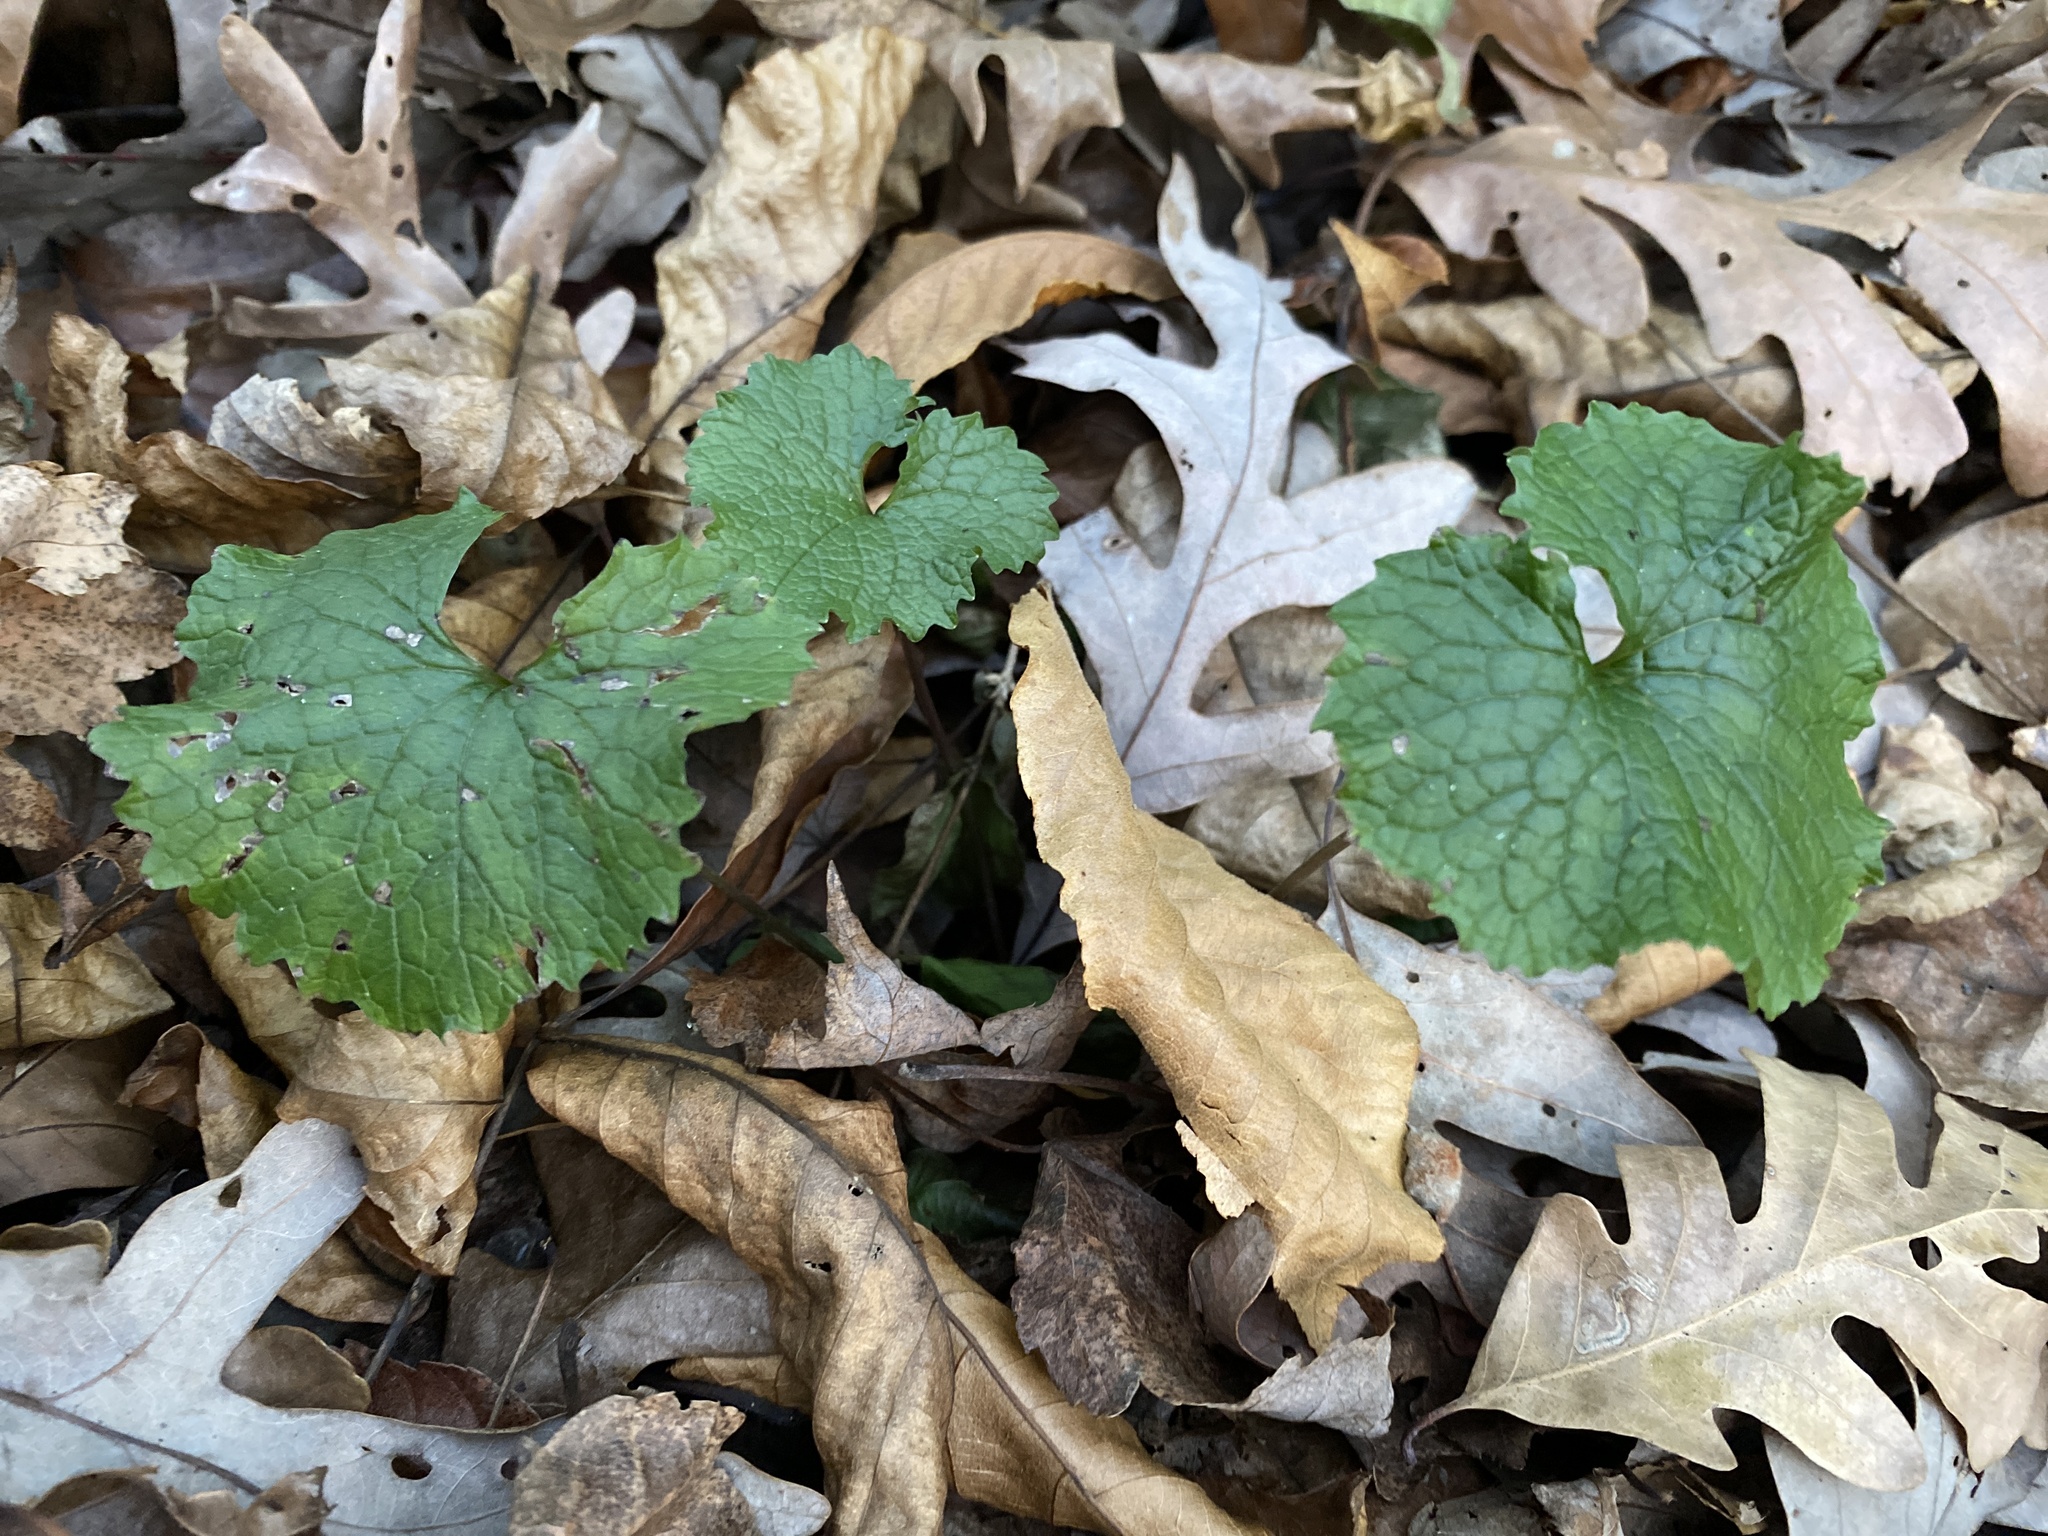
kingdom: Plantae
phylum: Tracheophyta
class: Magnoliopsida
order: Brassicales
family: Brassicaceae
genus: Alliaria
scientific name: Alliaria petiolata
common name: Garlic mustard
